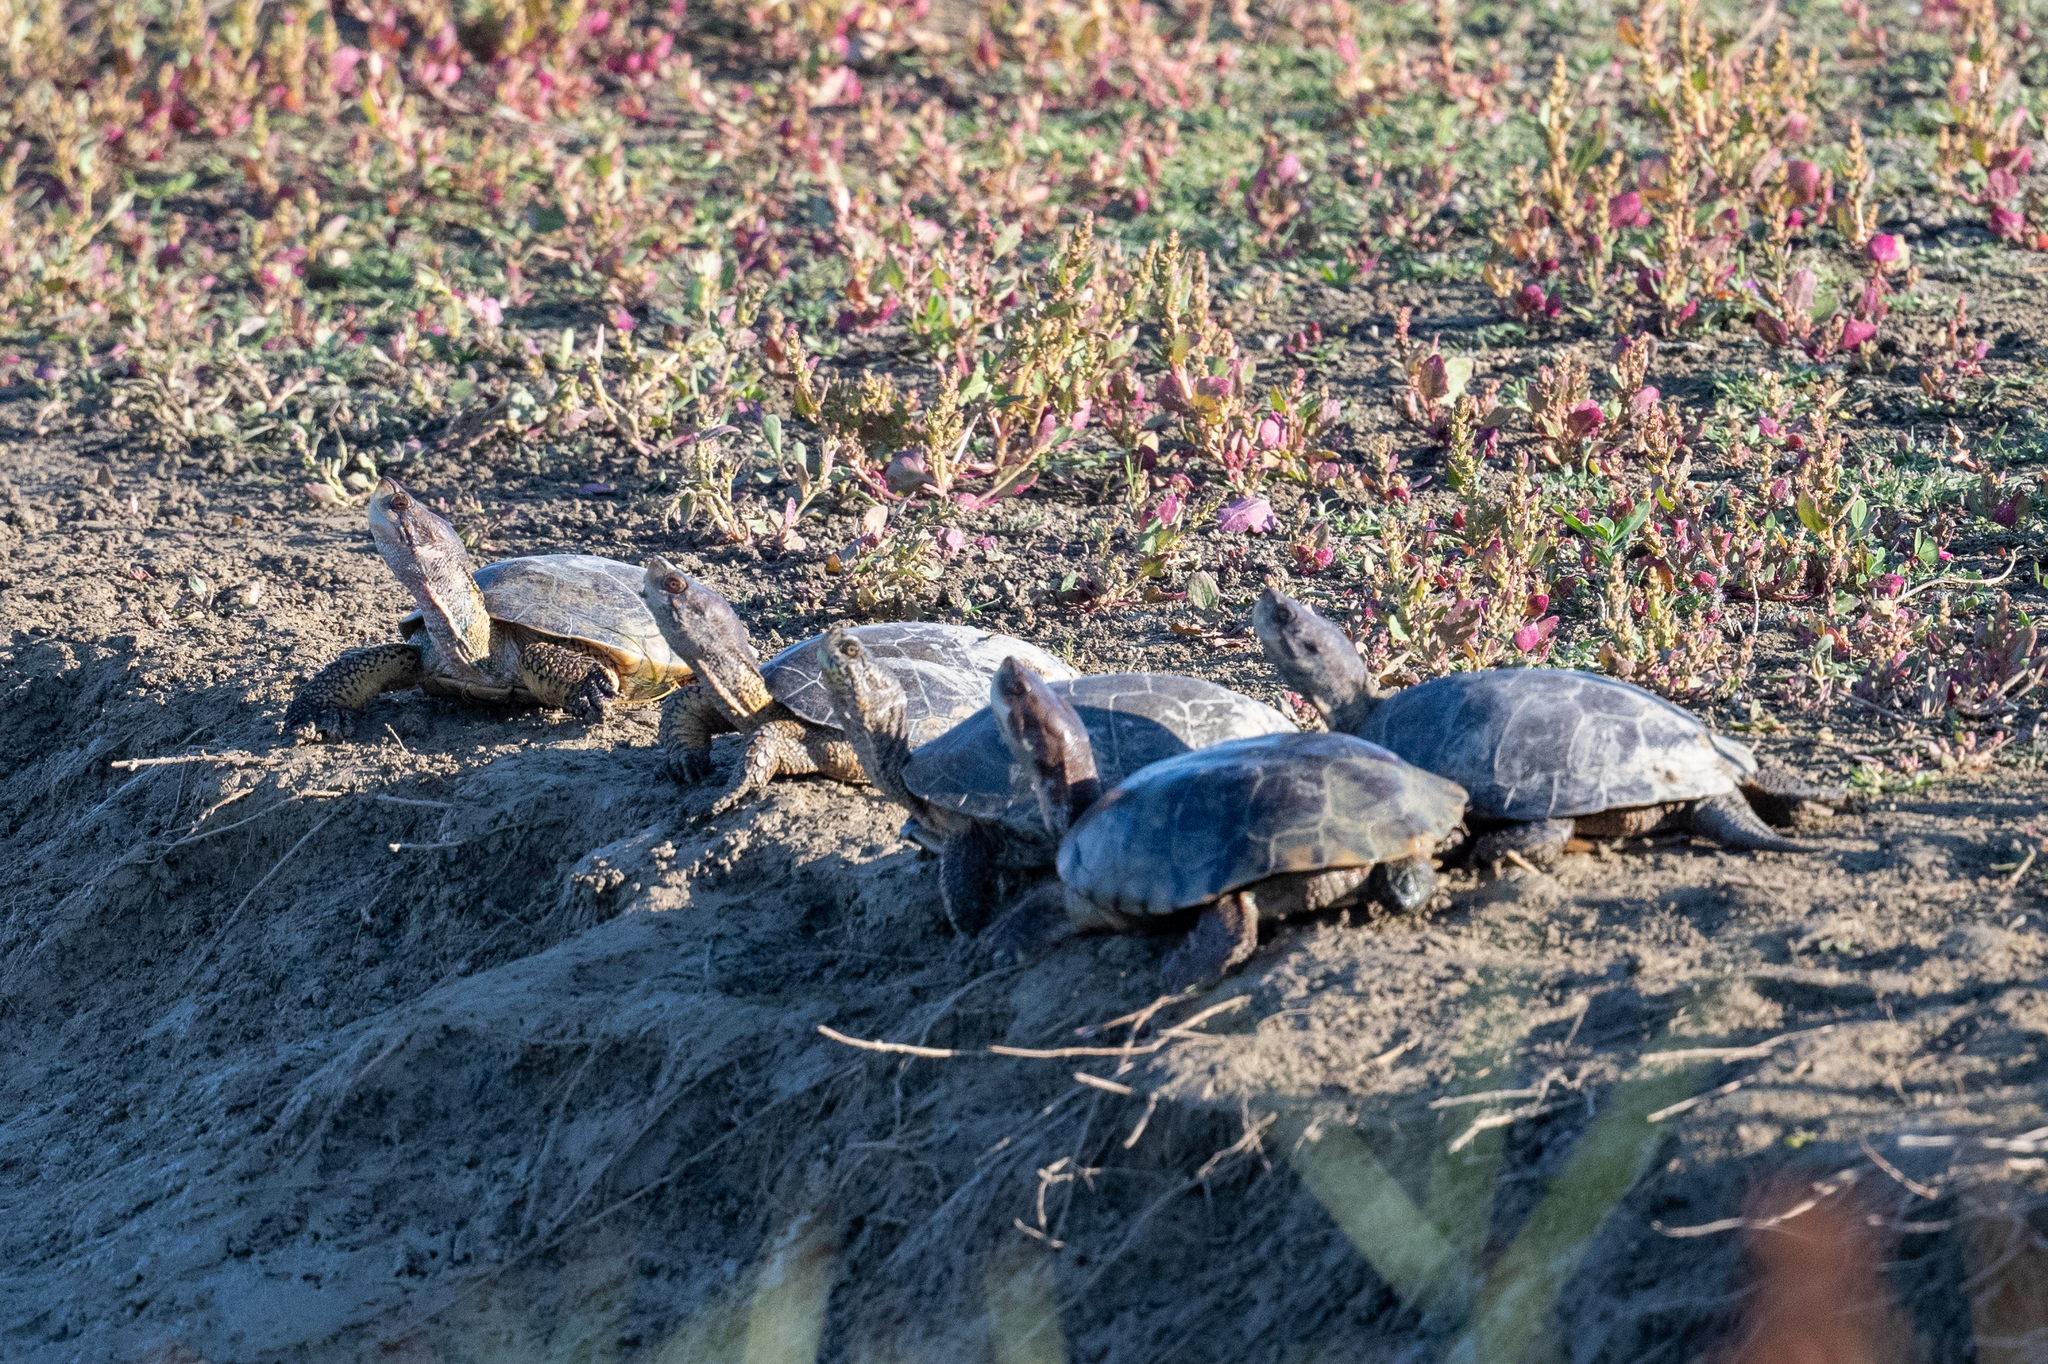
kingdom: Animalia
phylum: Chordata
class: Testudines
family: Emydidae
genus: Actinemys
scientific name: Actinemys marmorata
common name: Western pond turtle
